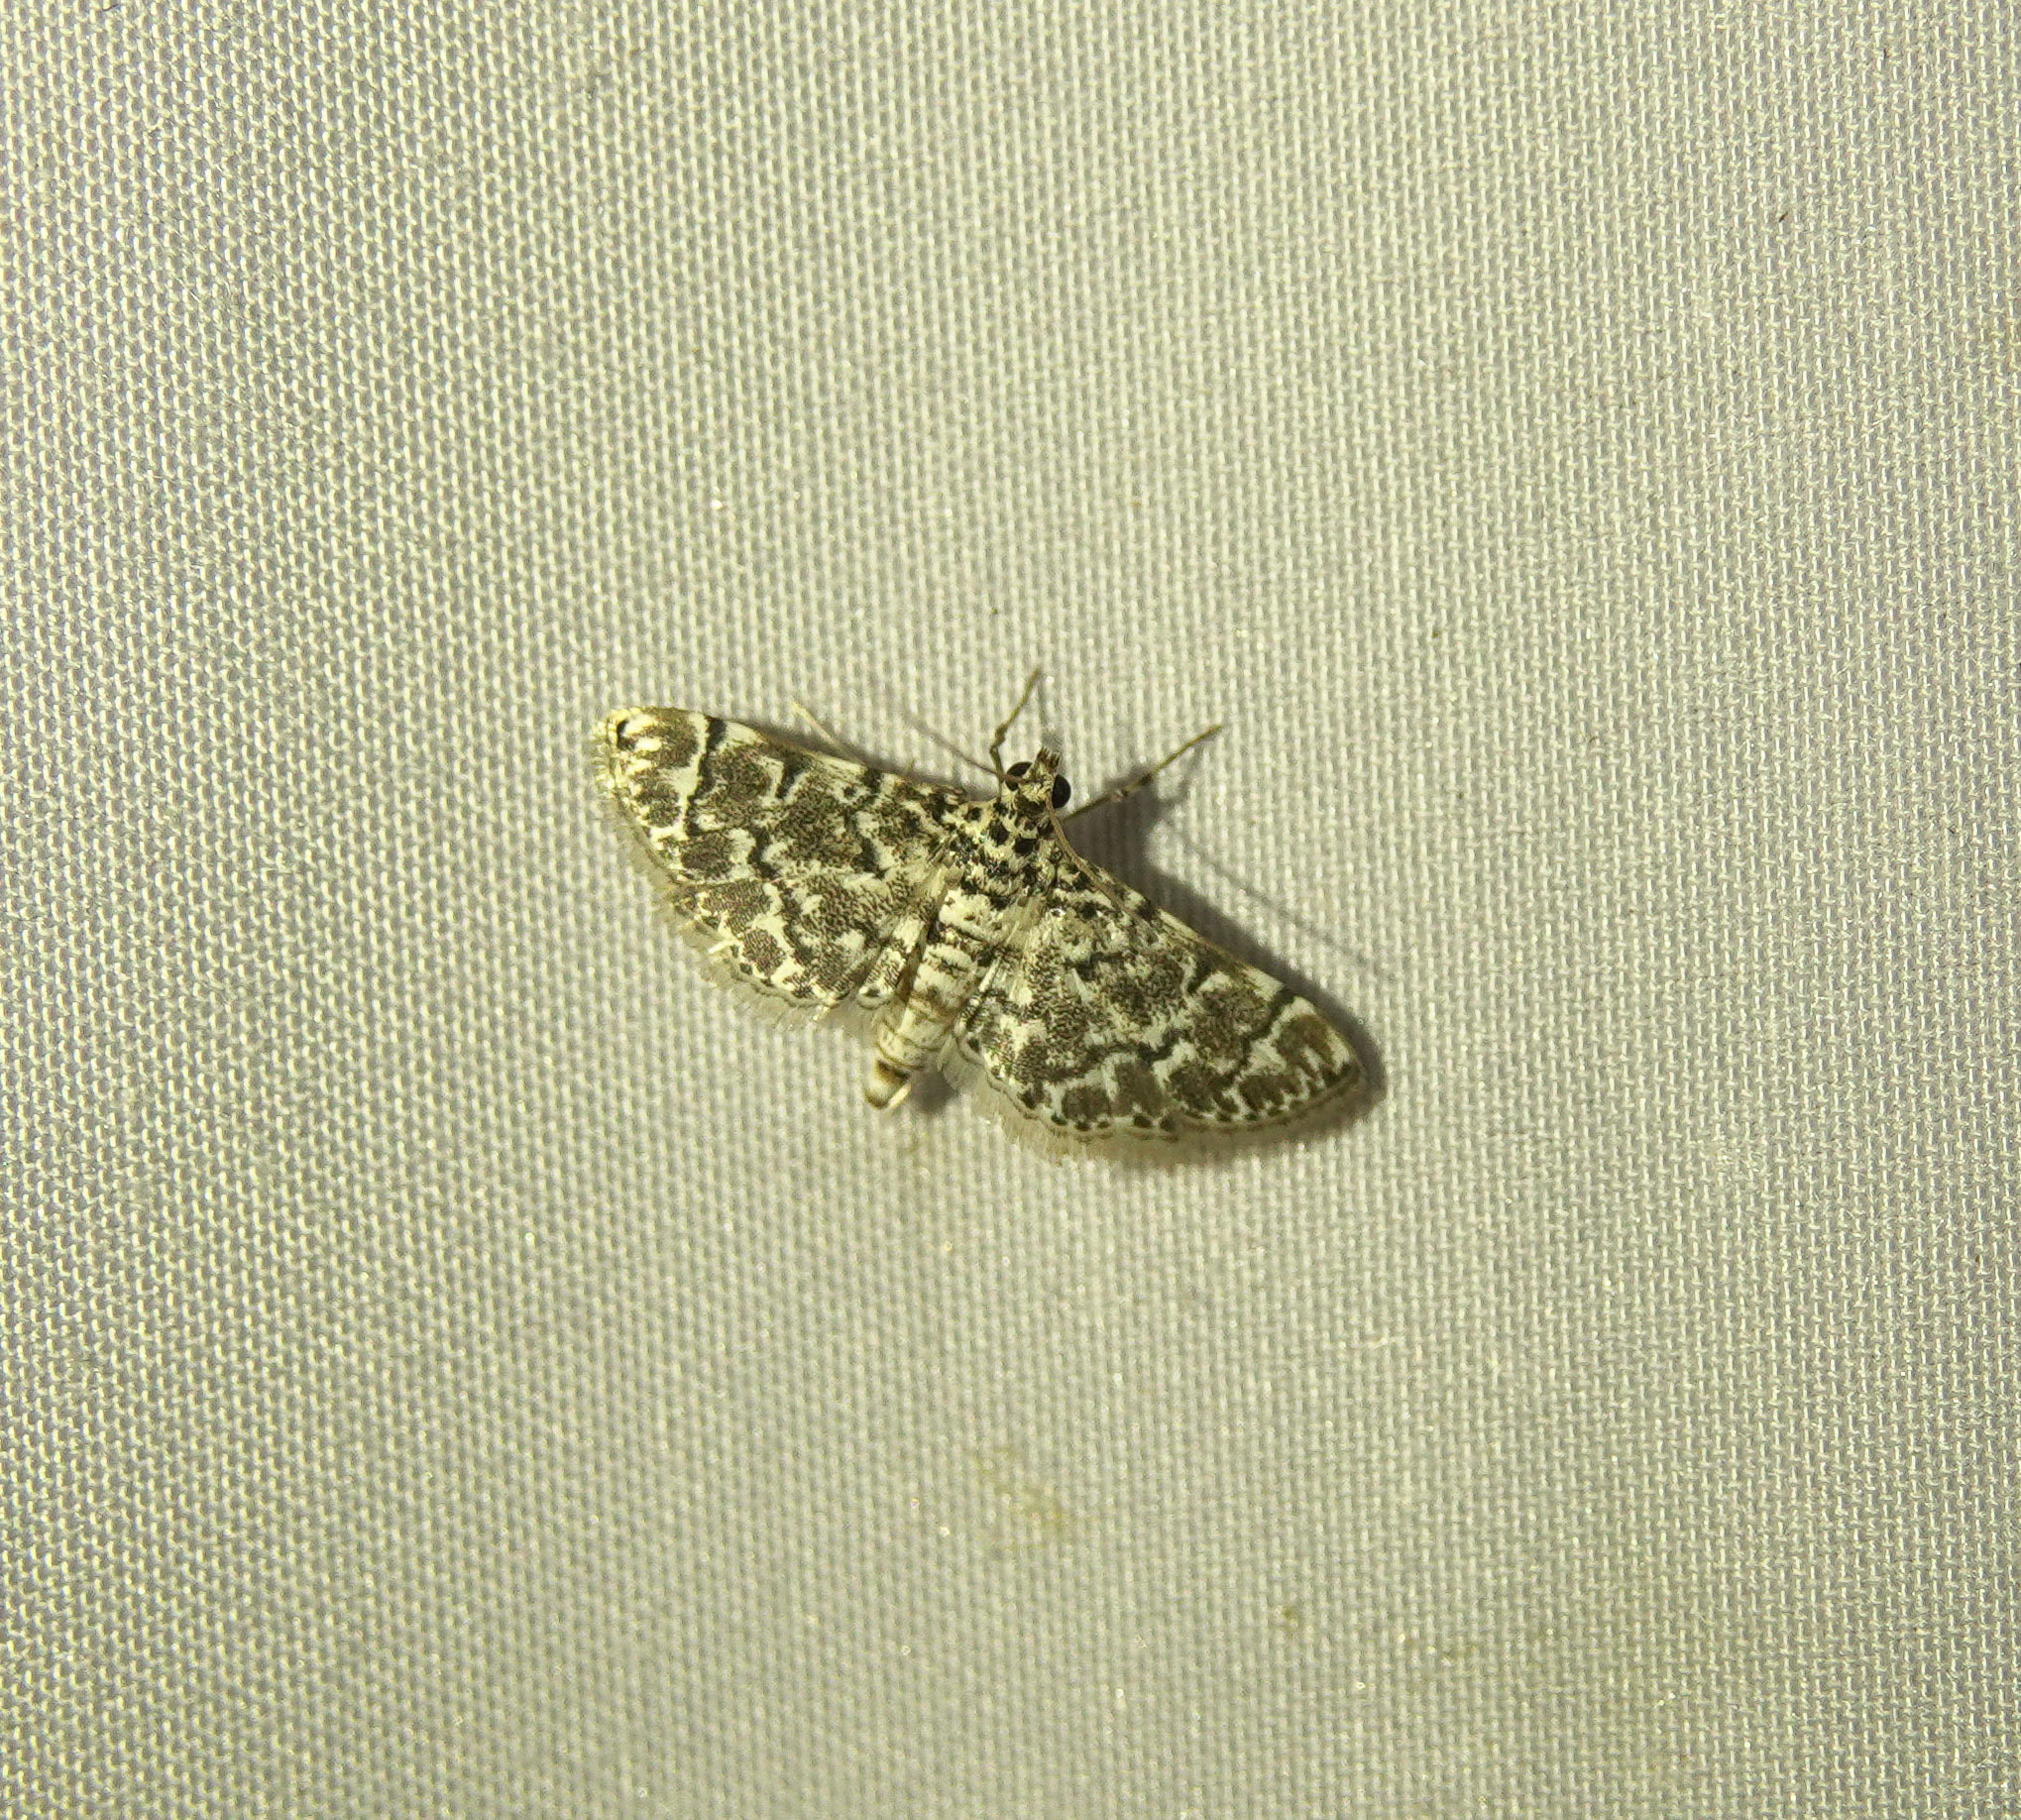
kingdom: Animalia
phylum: Arthropoda
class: Insecta
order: Lepidoptera
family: Crambidae
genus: Metoeca
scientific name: Metoeca foedalis
